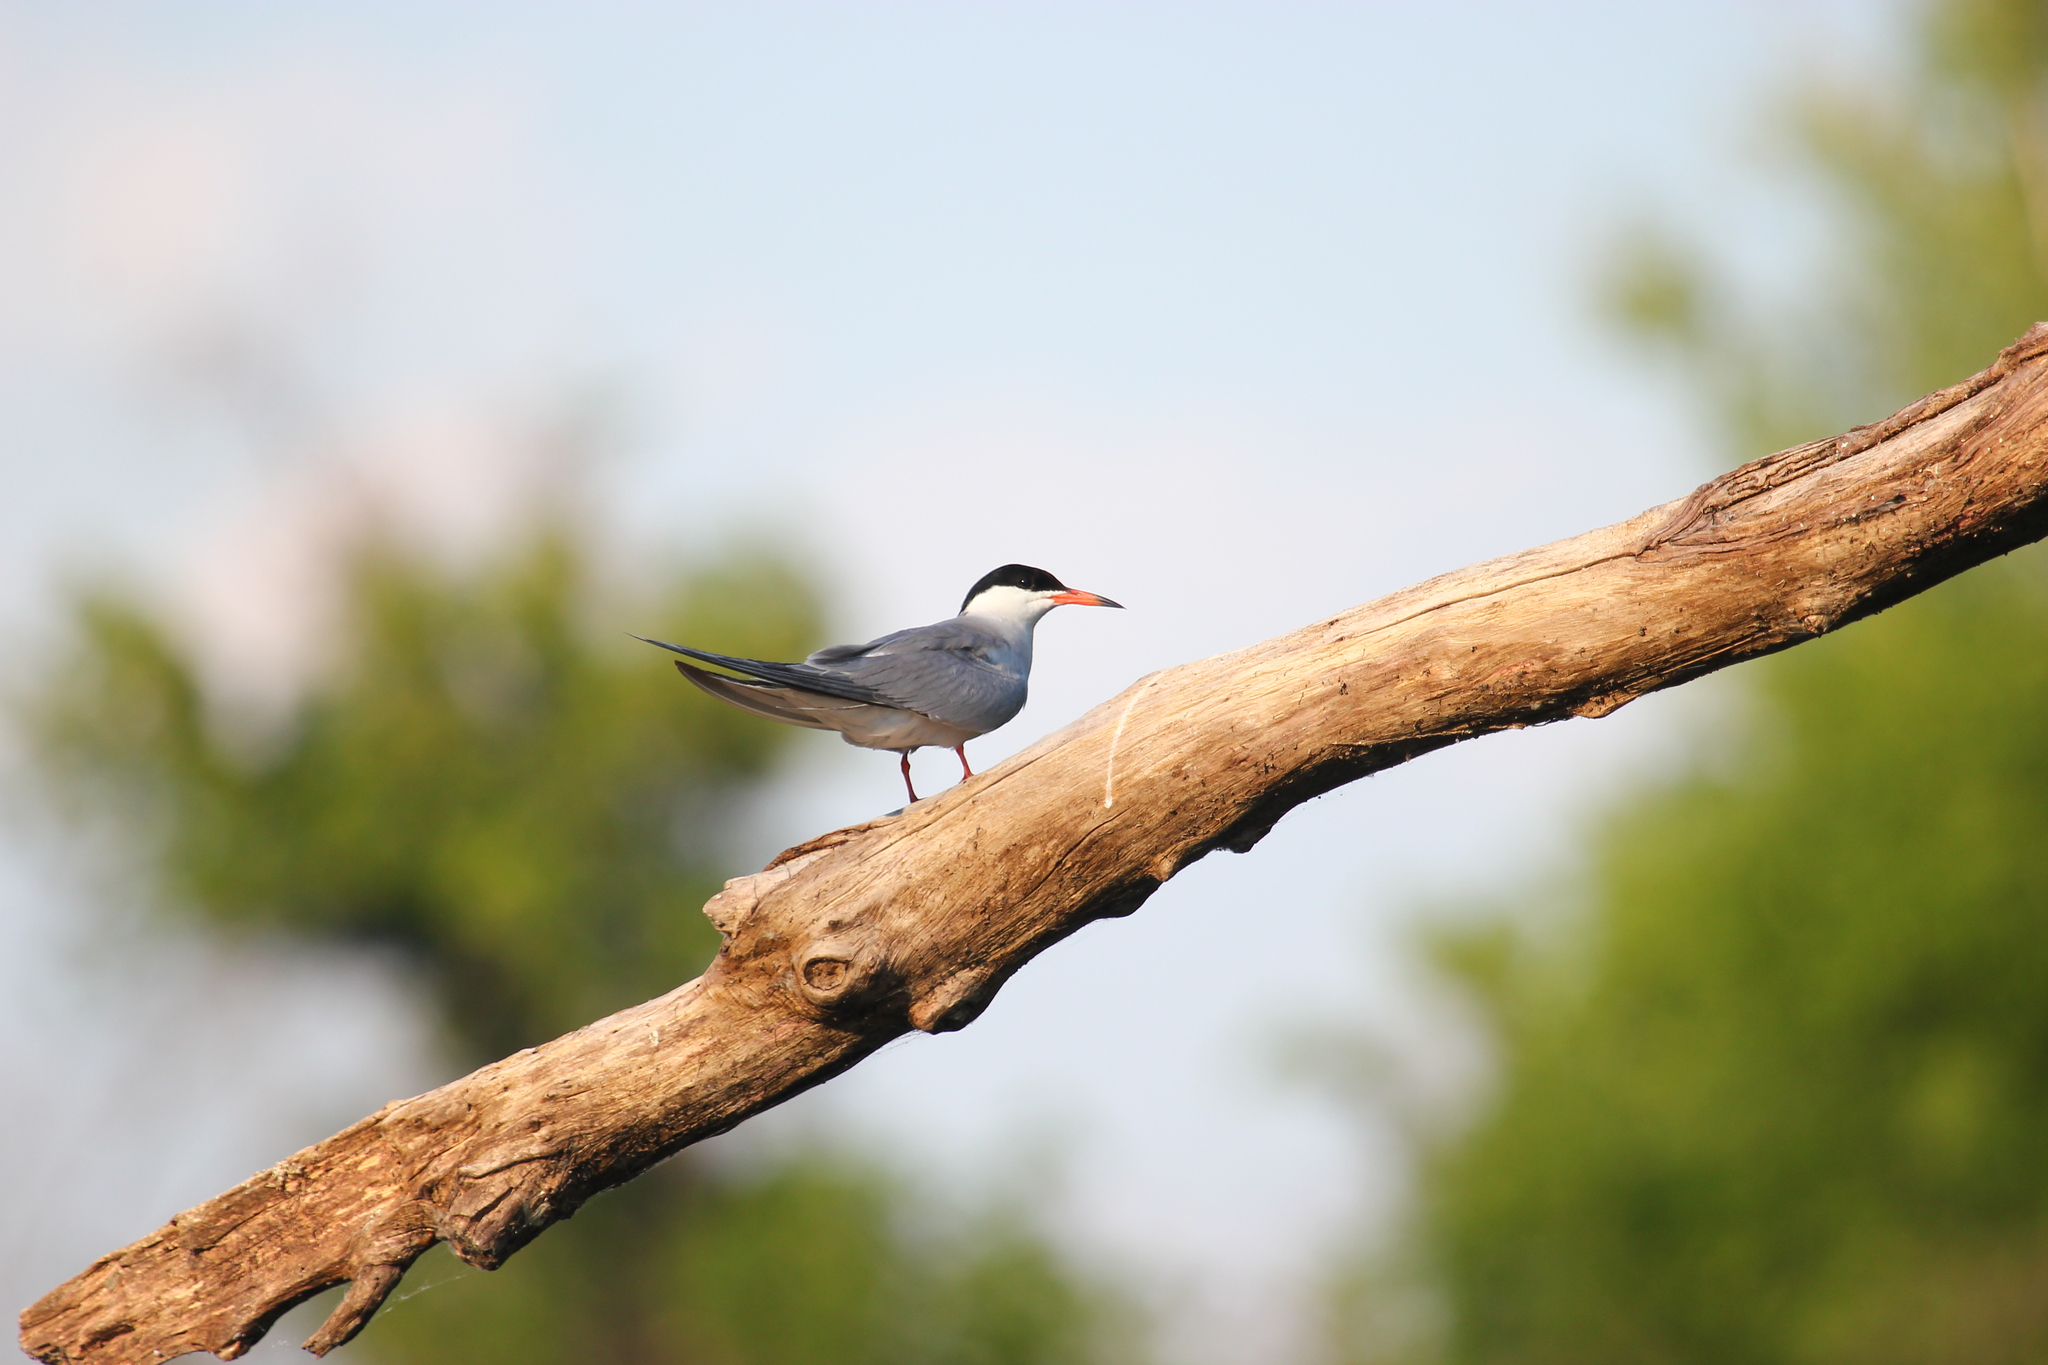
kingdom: Animalia
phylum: Chordata
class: Aves
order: Charadriiformes
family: Laridae
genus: Sterna
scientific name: Sterna hirundo
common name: Common tern
